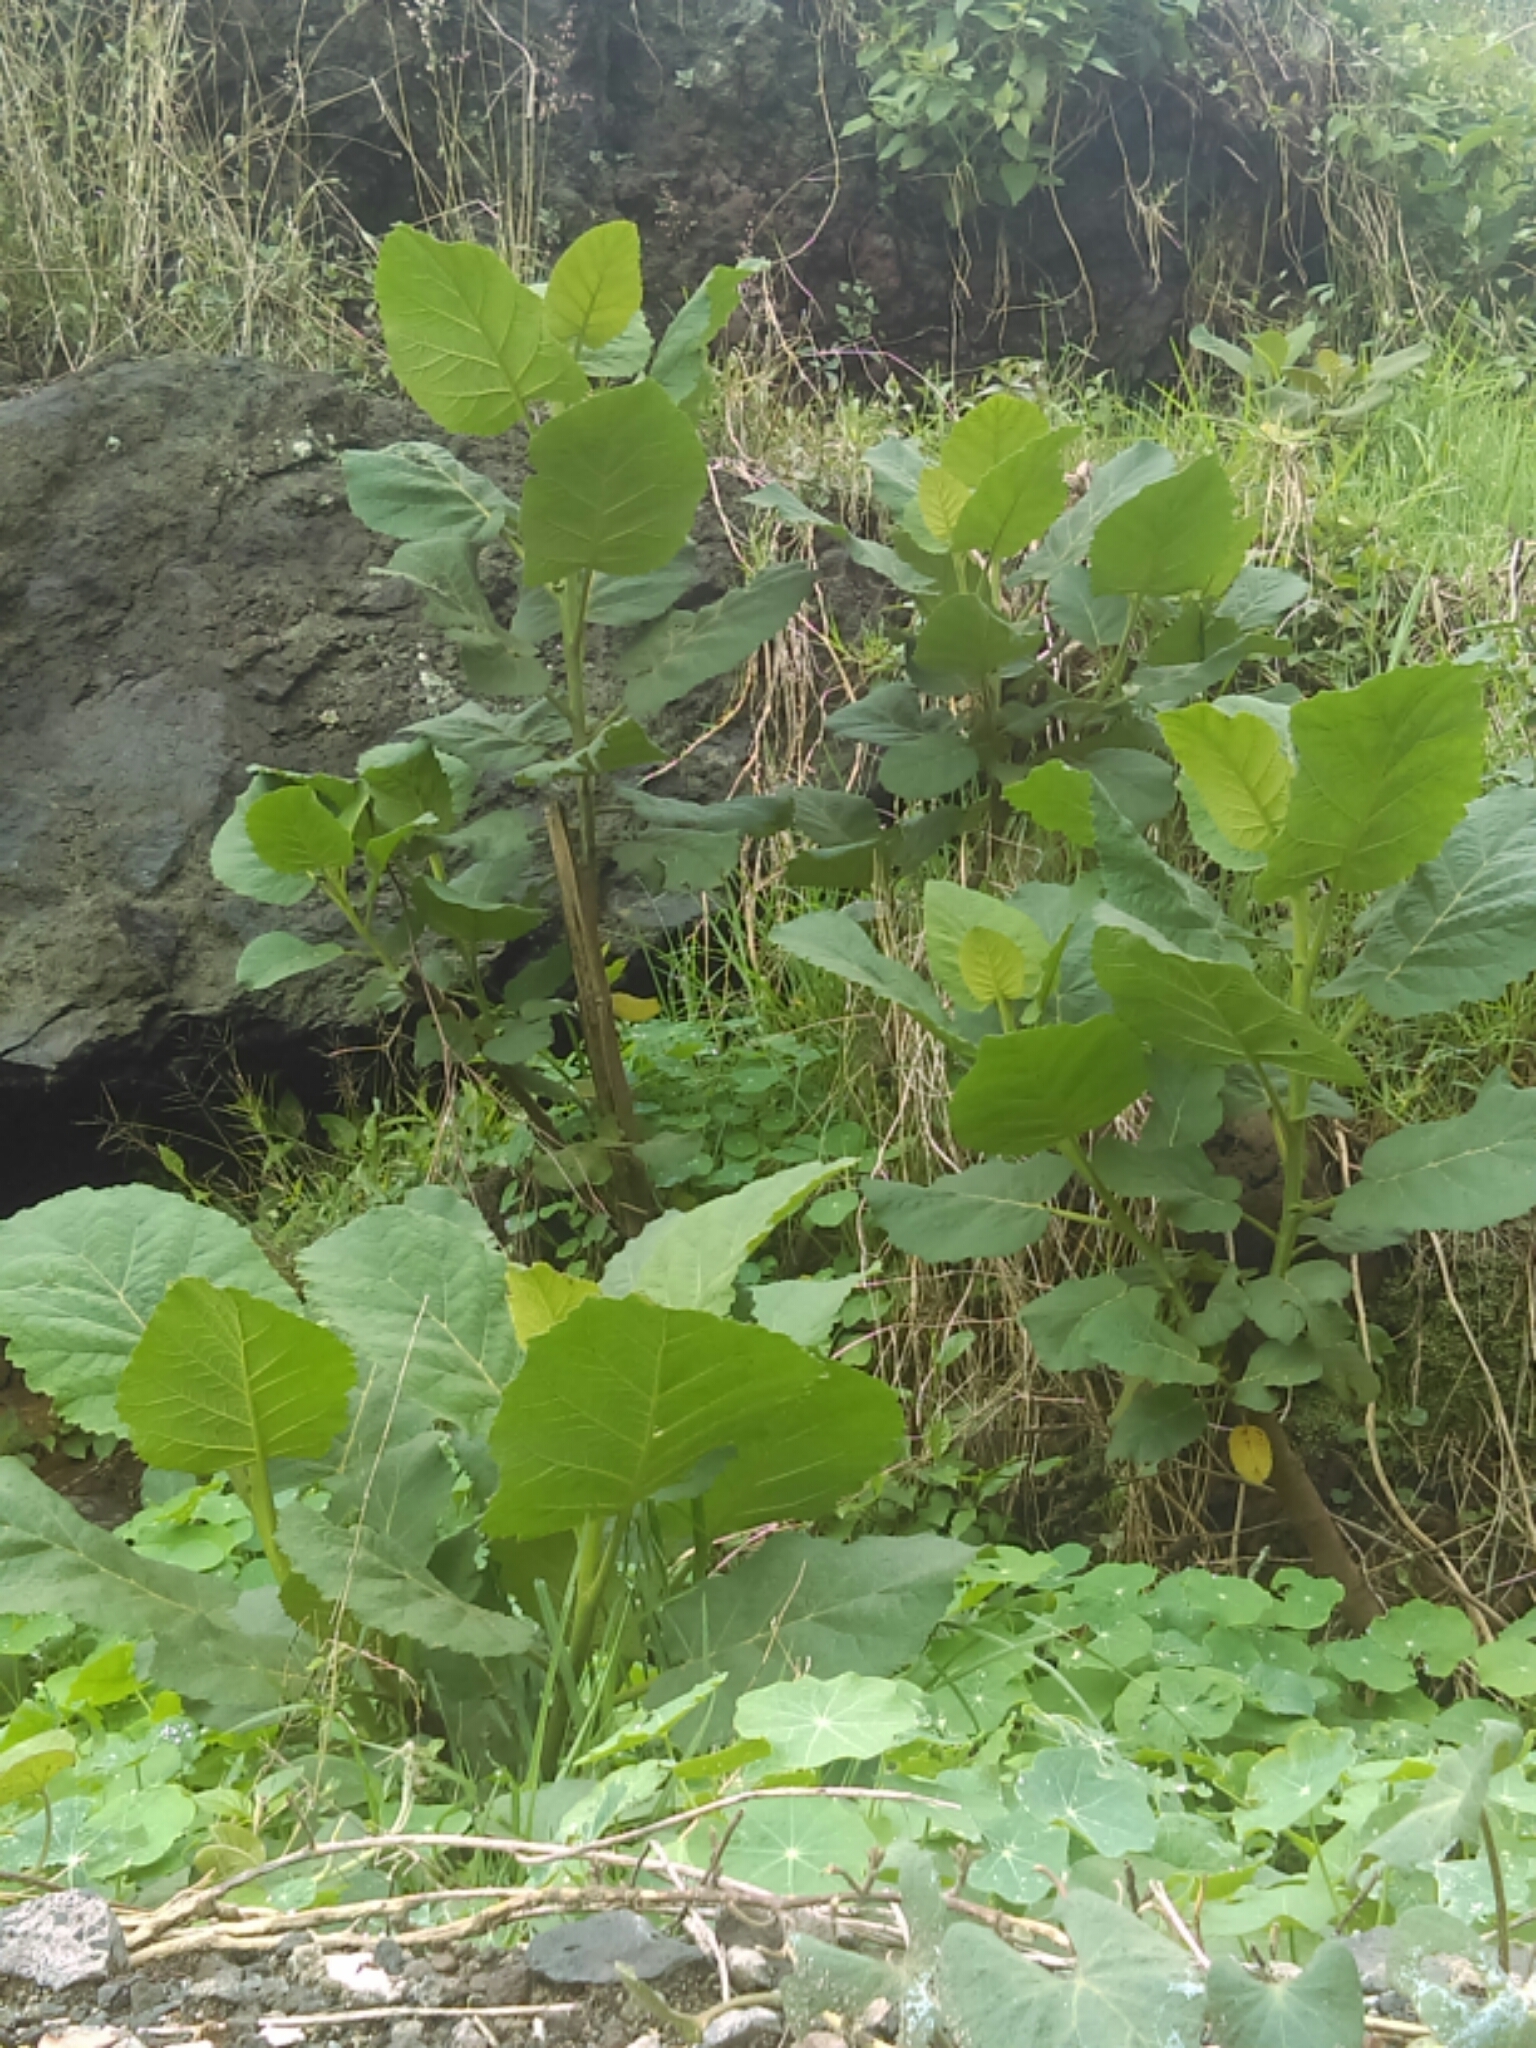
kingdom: Plantae
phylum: Tracheophyta
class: Magnoliopsida
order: Boraginales
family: Namaceae
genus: Wigandia
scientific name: Wigandia urens
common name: Caracus wigandia
